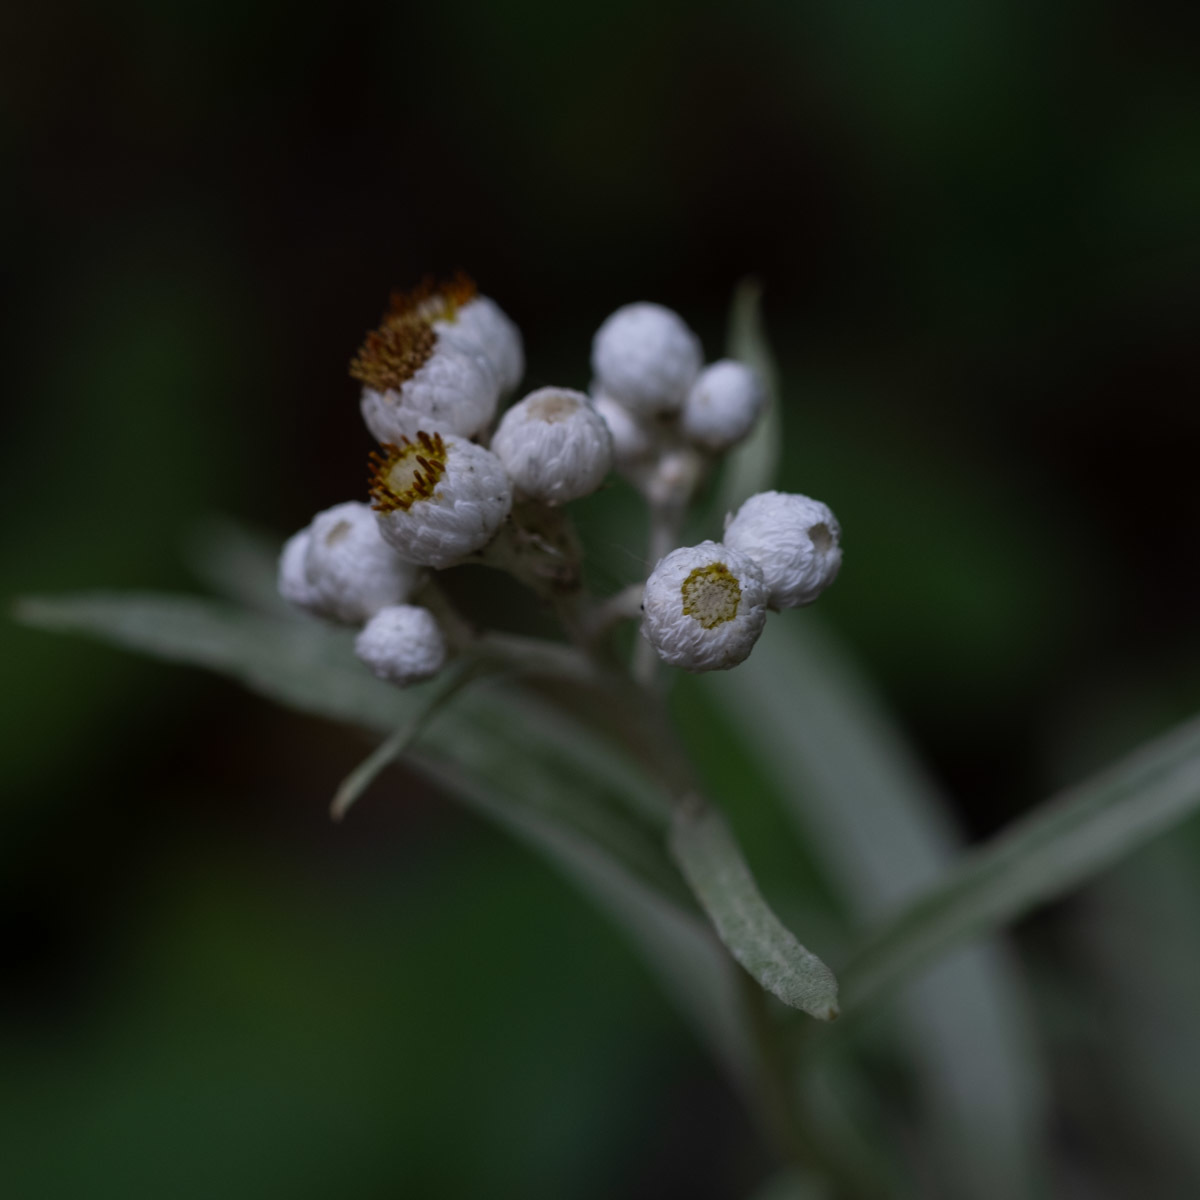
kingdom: Plantae
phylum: Tracheophyta
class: Magnoliopsida
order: Asterales
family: Asteraceae
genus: Anaphalis
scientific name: Anaphalis margaritacea
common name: Pearly everlasting
